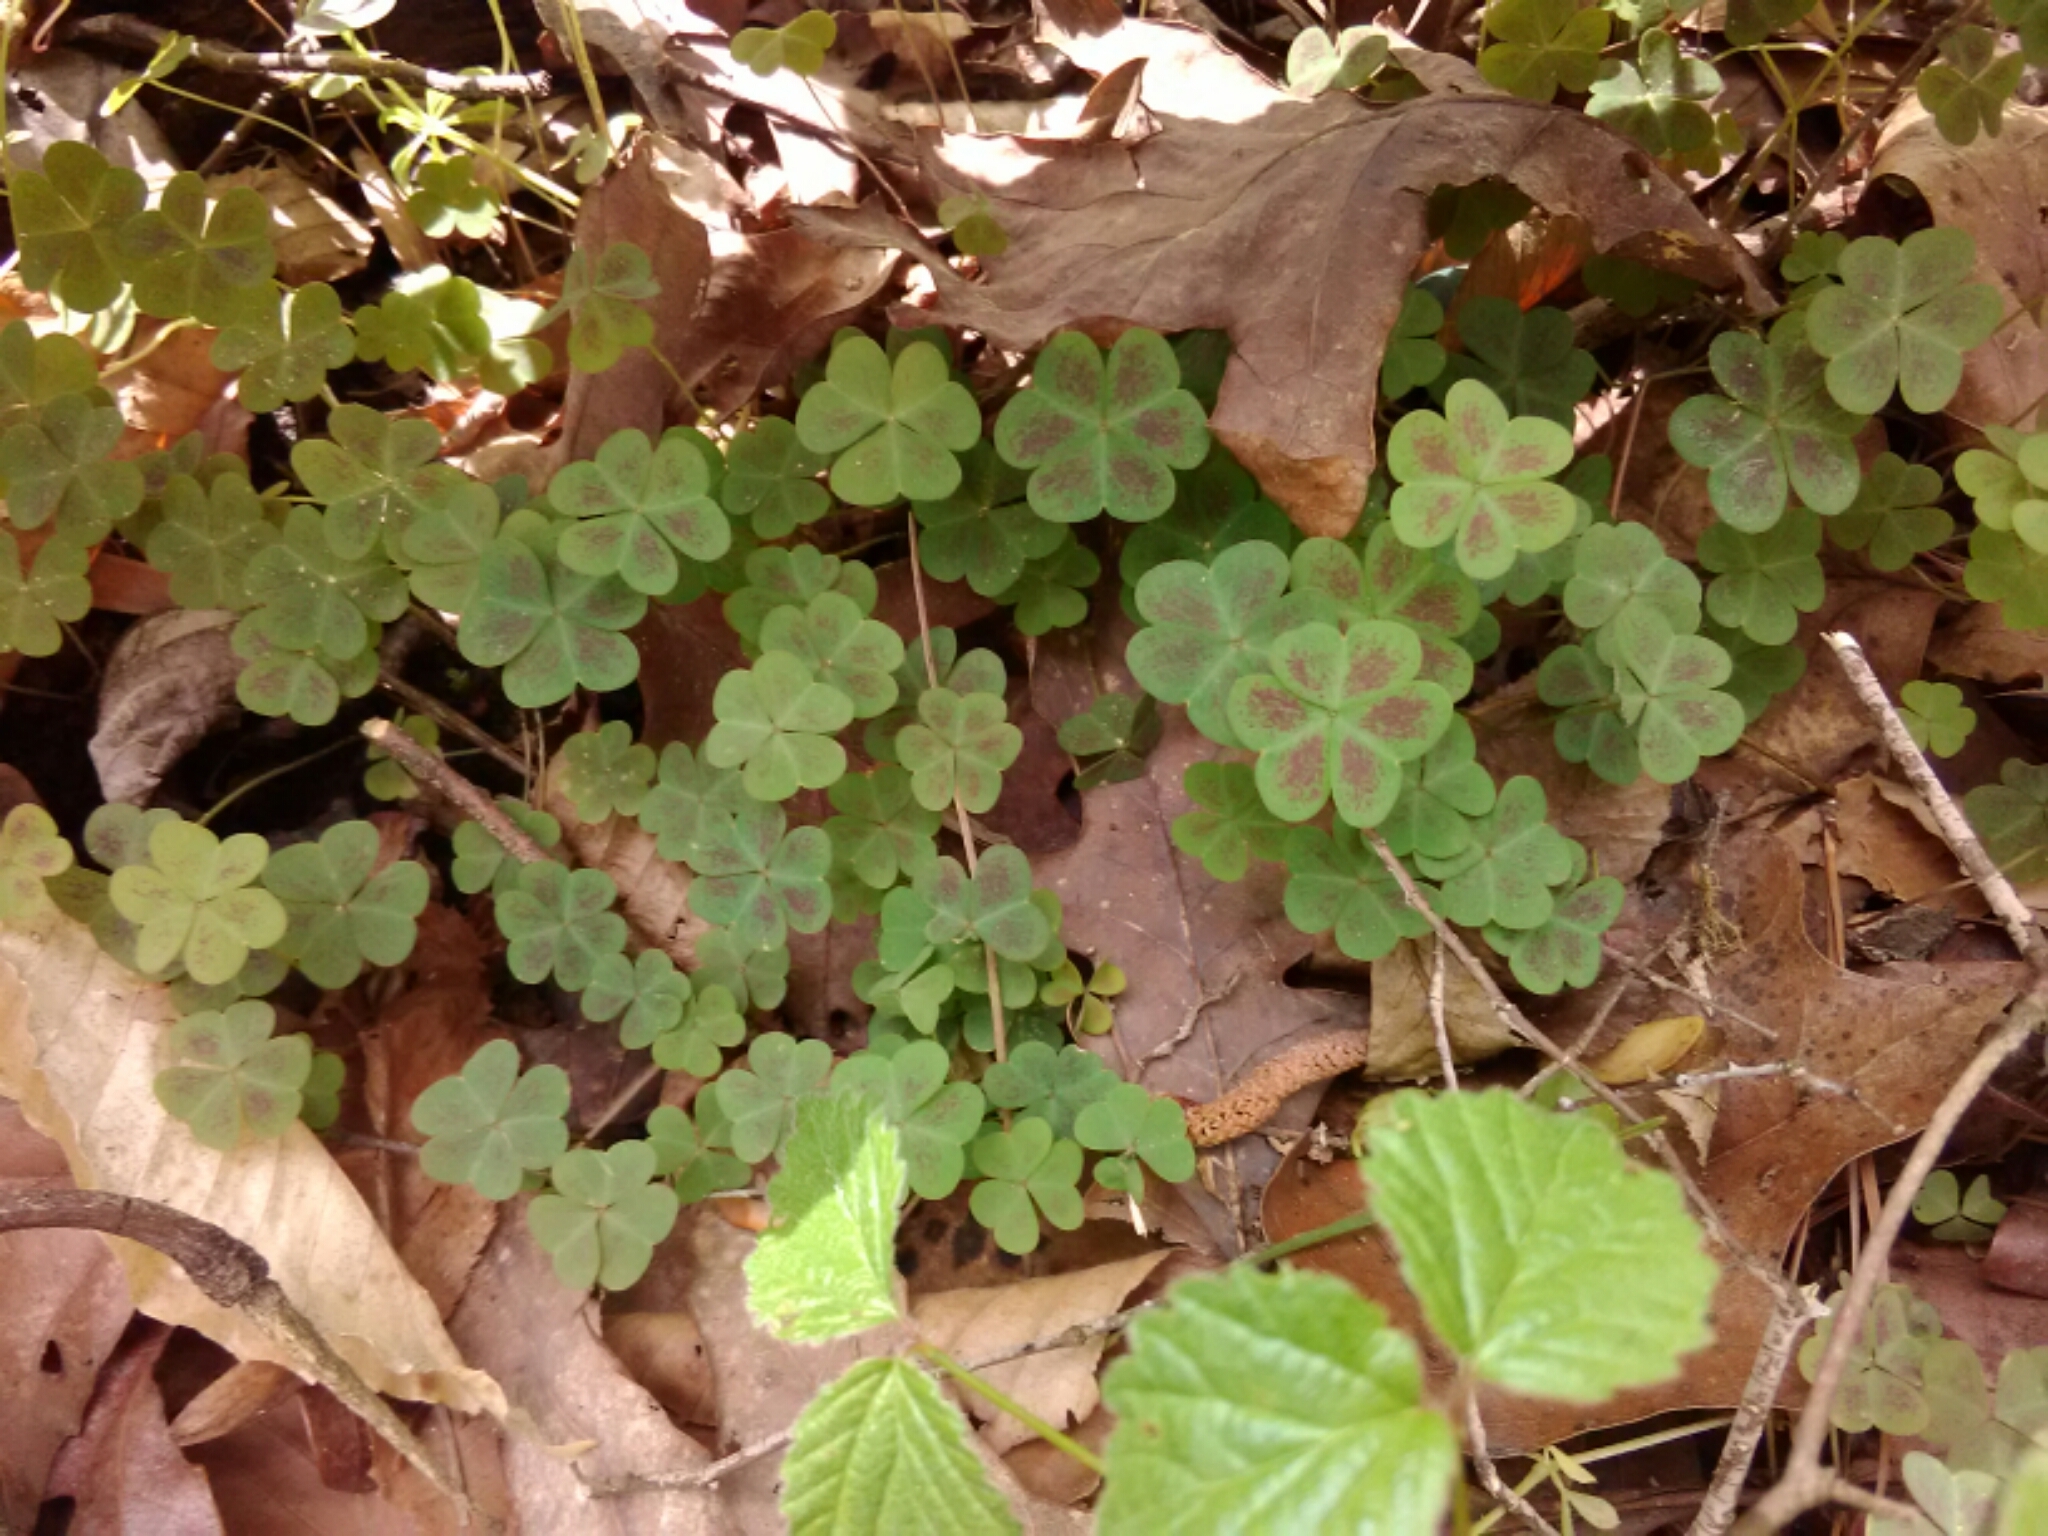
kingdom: Plantae
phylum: Tracheophyta
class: Magnoliopsida
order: Oxalidales
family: Oxalidaceae
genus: Oxalis
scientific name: Oxalis violacea
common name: Violet wood-sorrel
